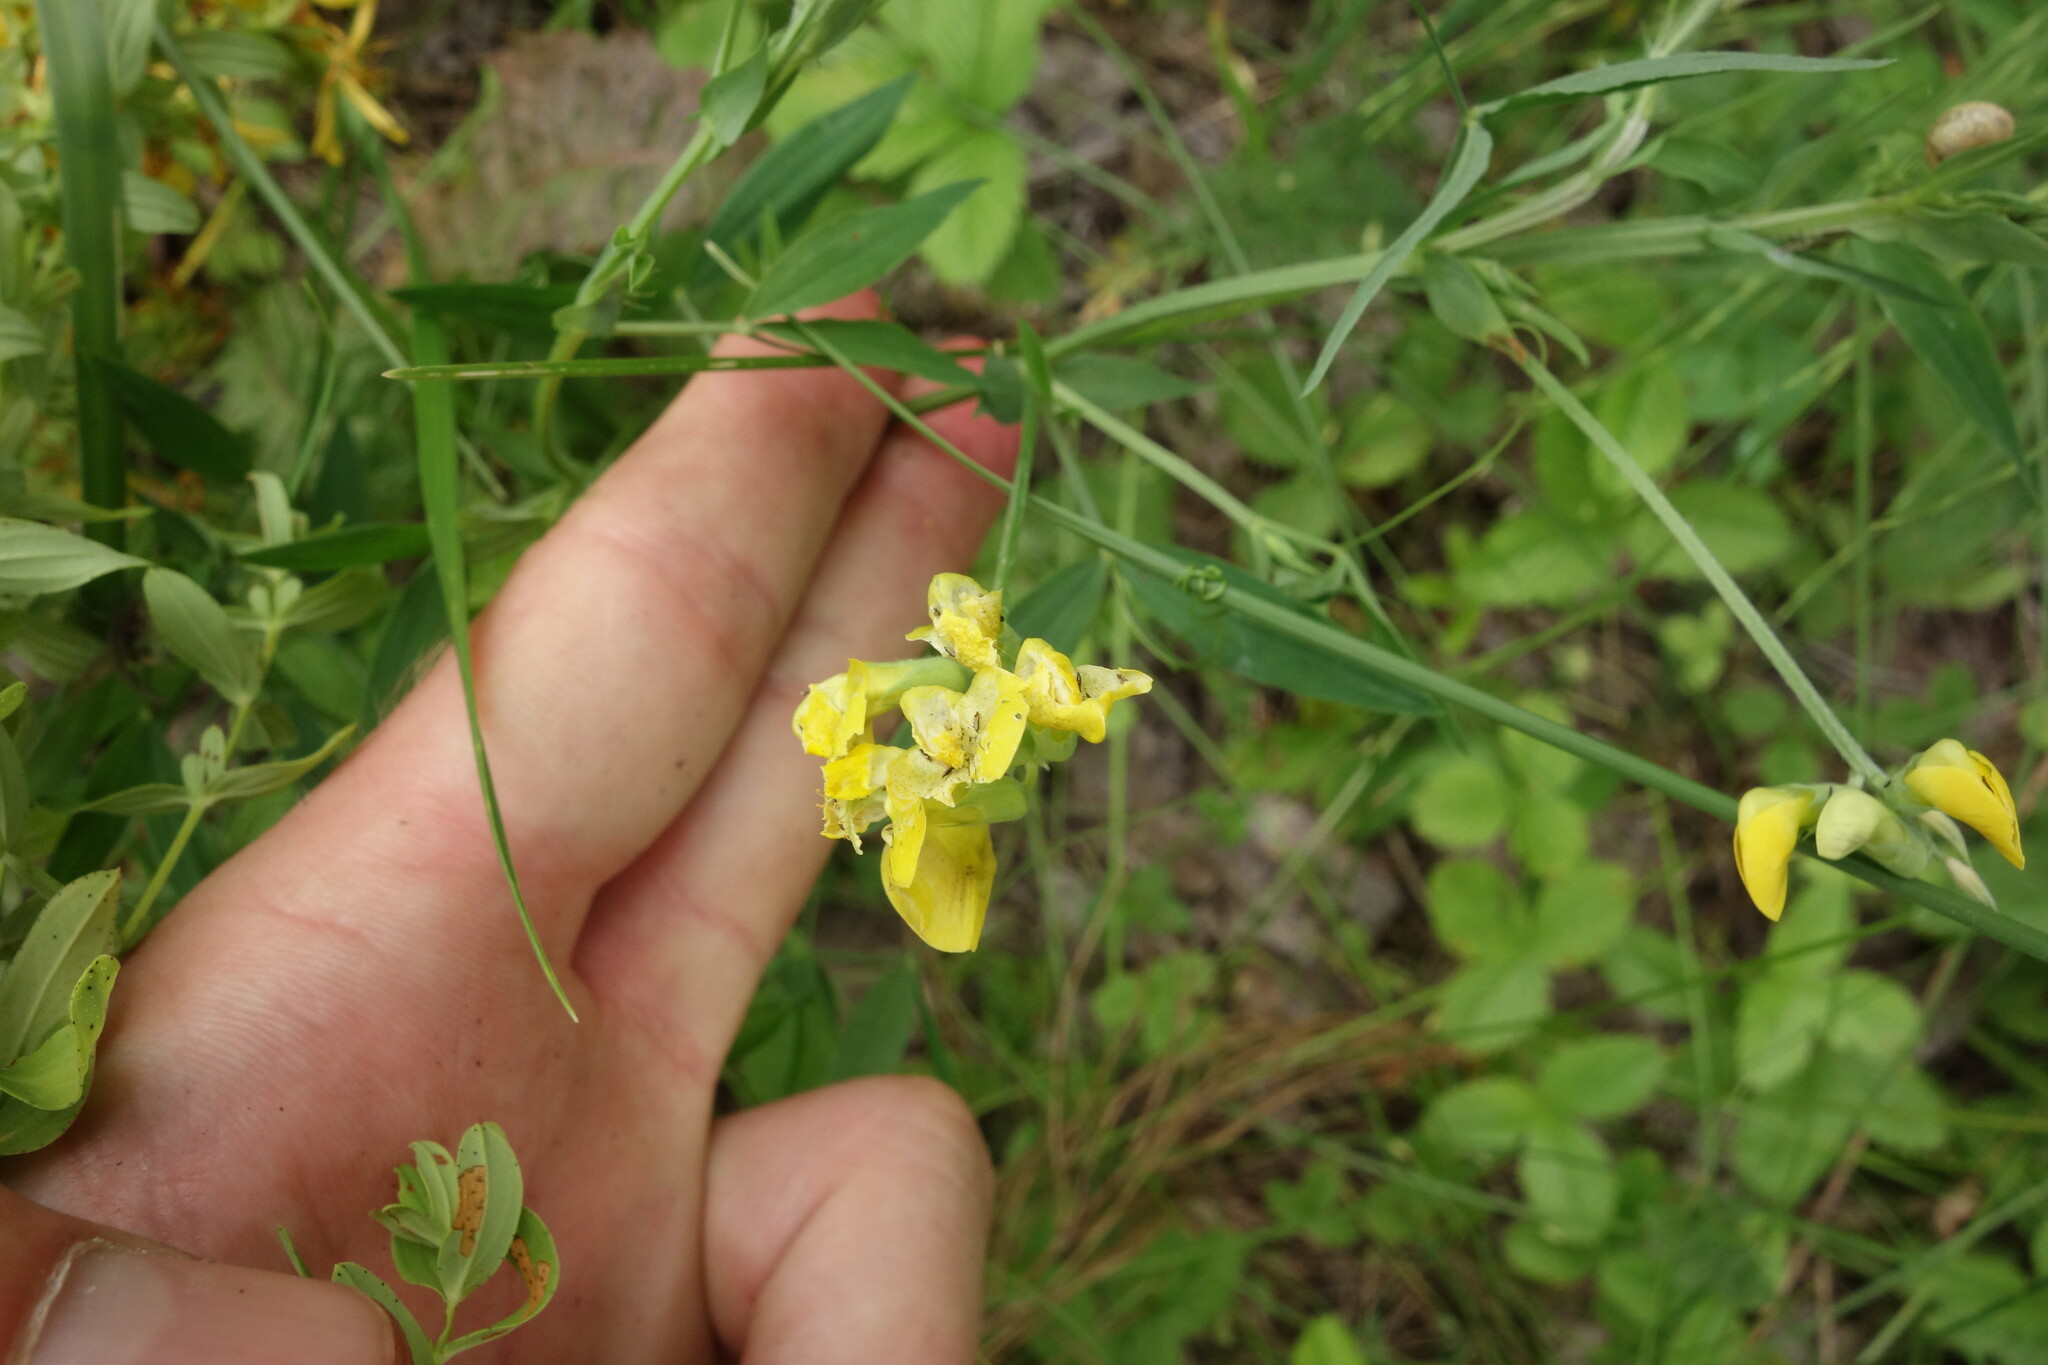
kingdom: Plantae
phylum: Tracheophyta
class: Magnoliopsida
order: Fabales
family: Fabaceae
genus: Lathyrus
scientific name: Lathyrus pratensis
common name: Meadow vetchling
